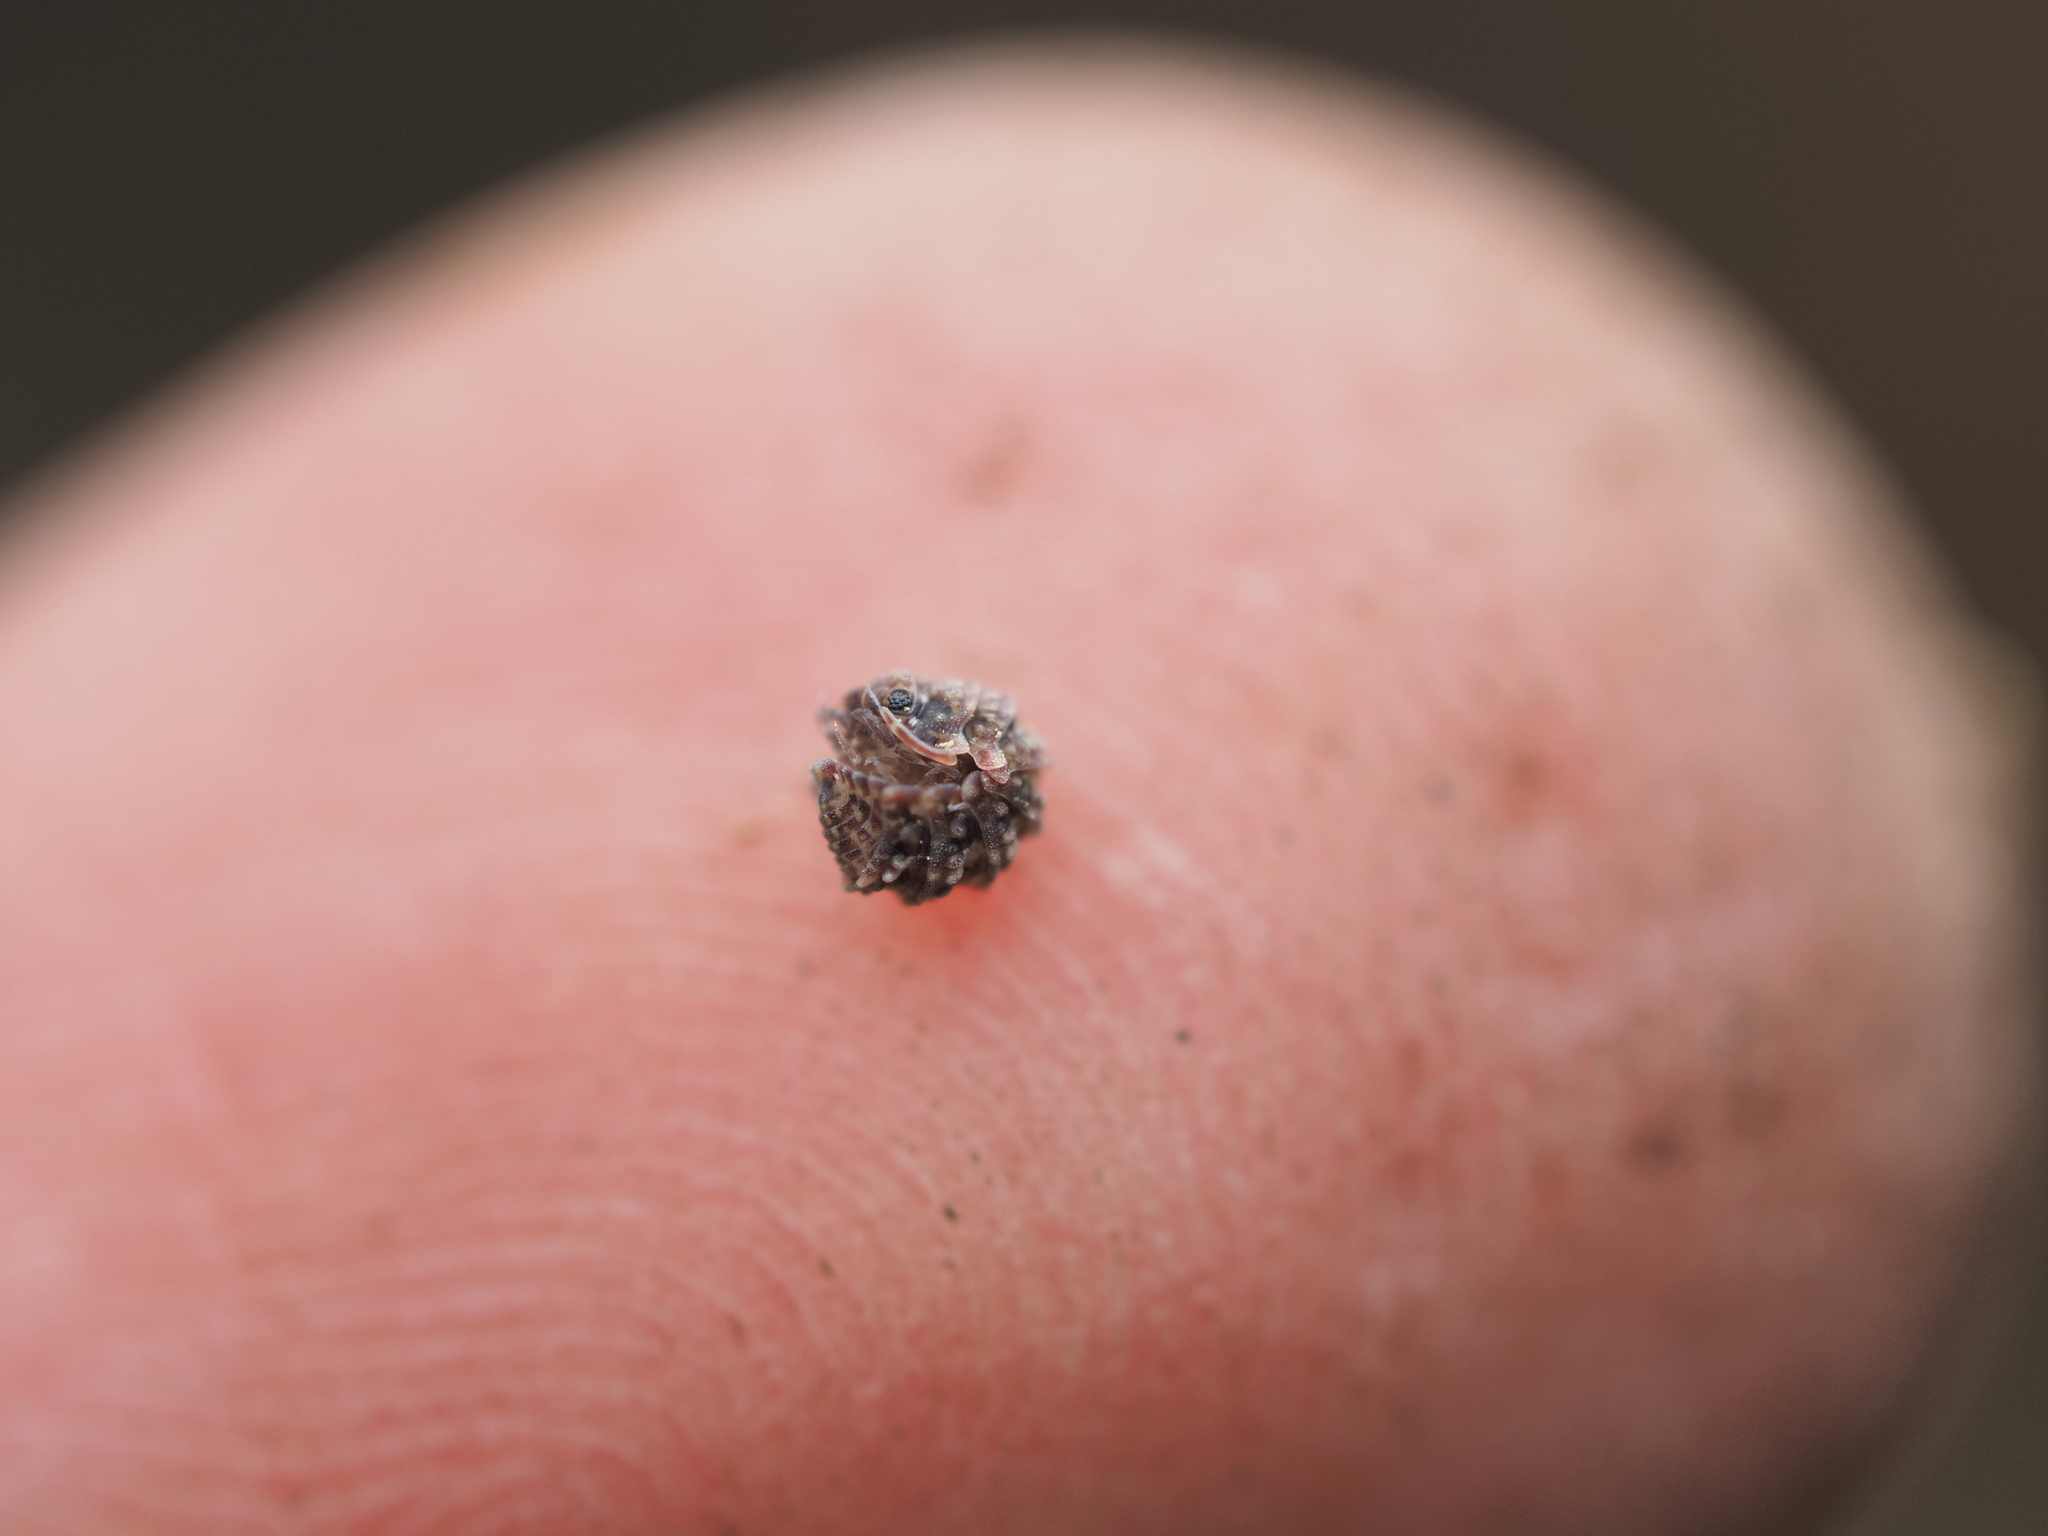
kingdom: Animalia
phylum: Arthropoda
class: Malacostraca
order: Isopoda
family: Armadillidae
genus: Spherillo
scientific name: Spherillo Sphaerilloides tuberculatus
